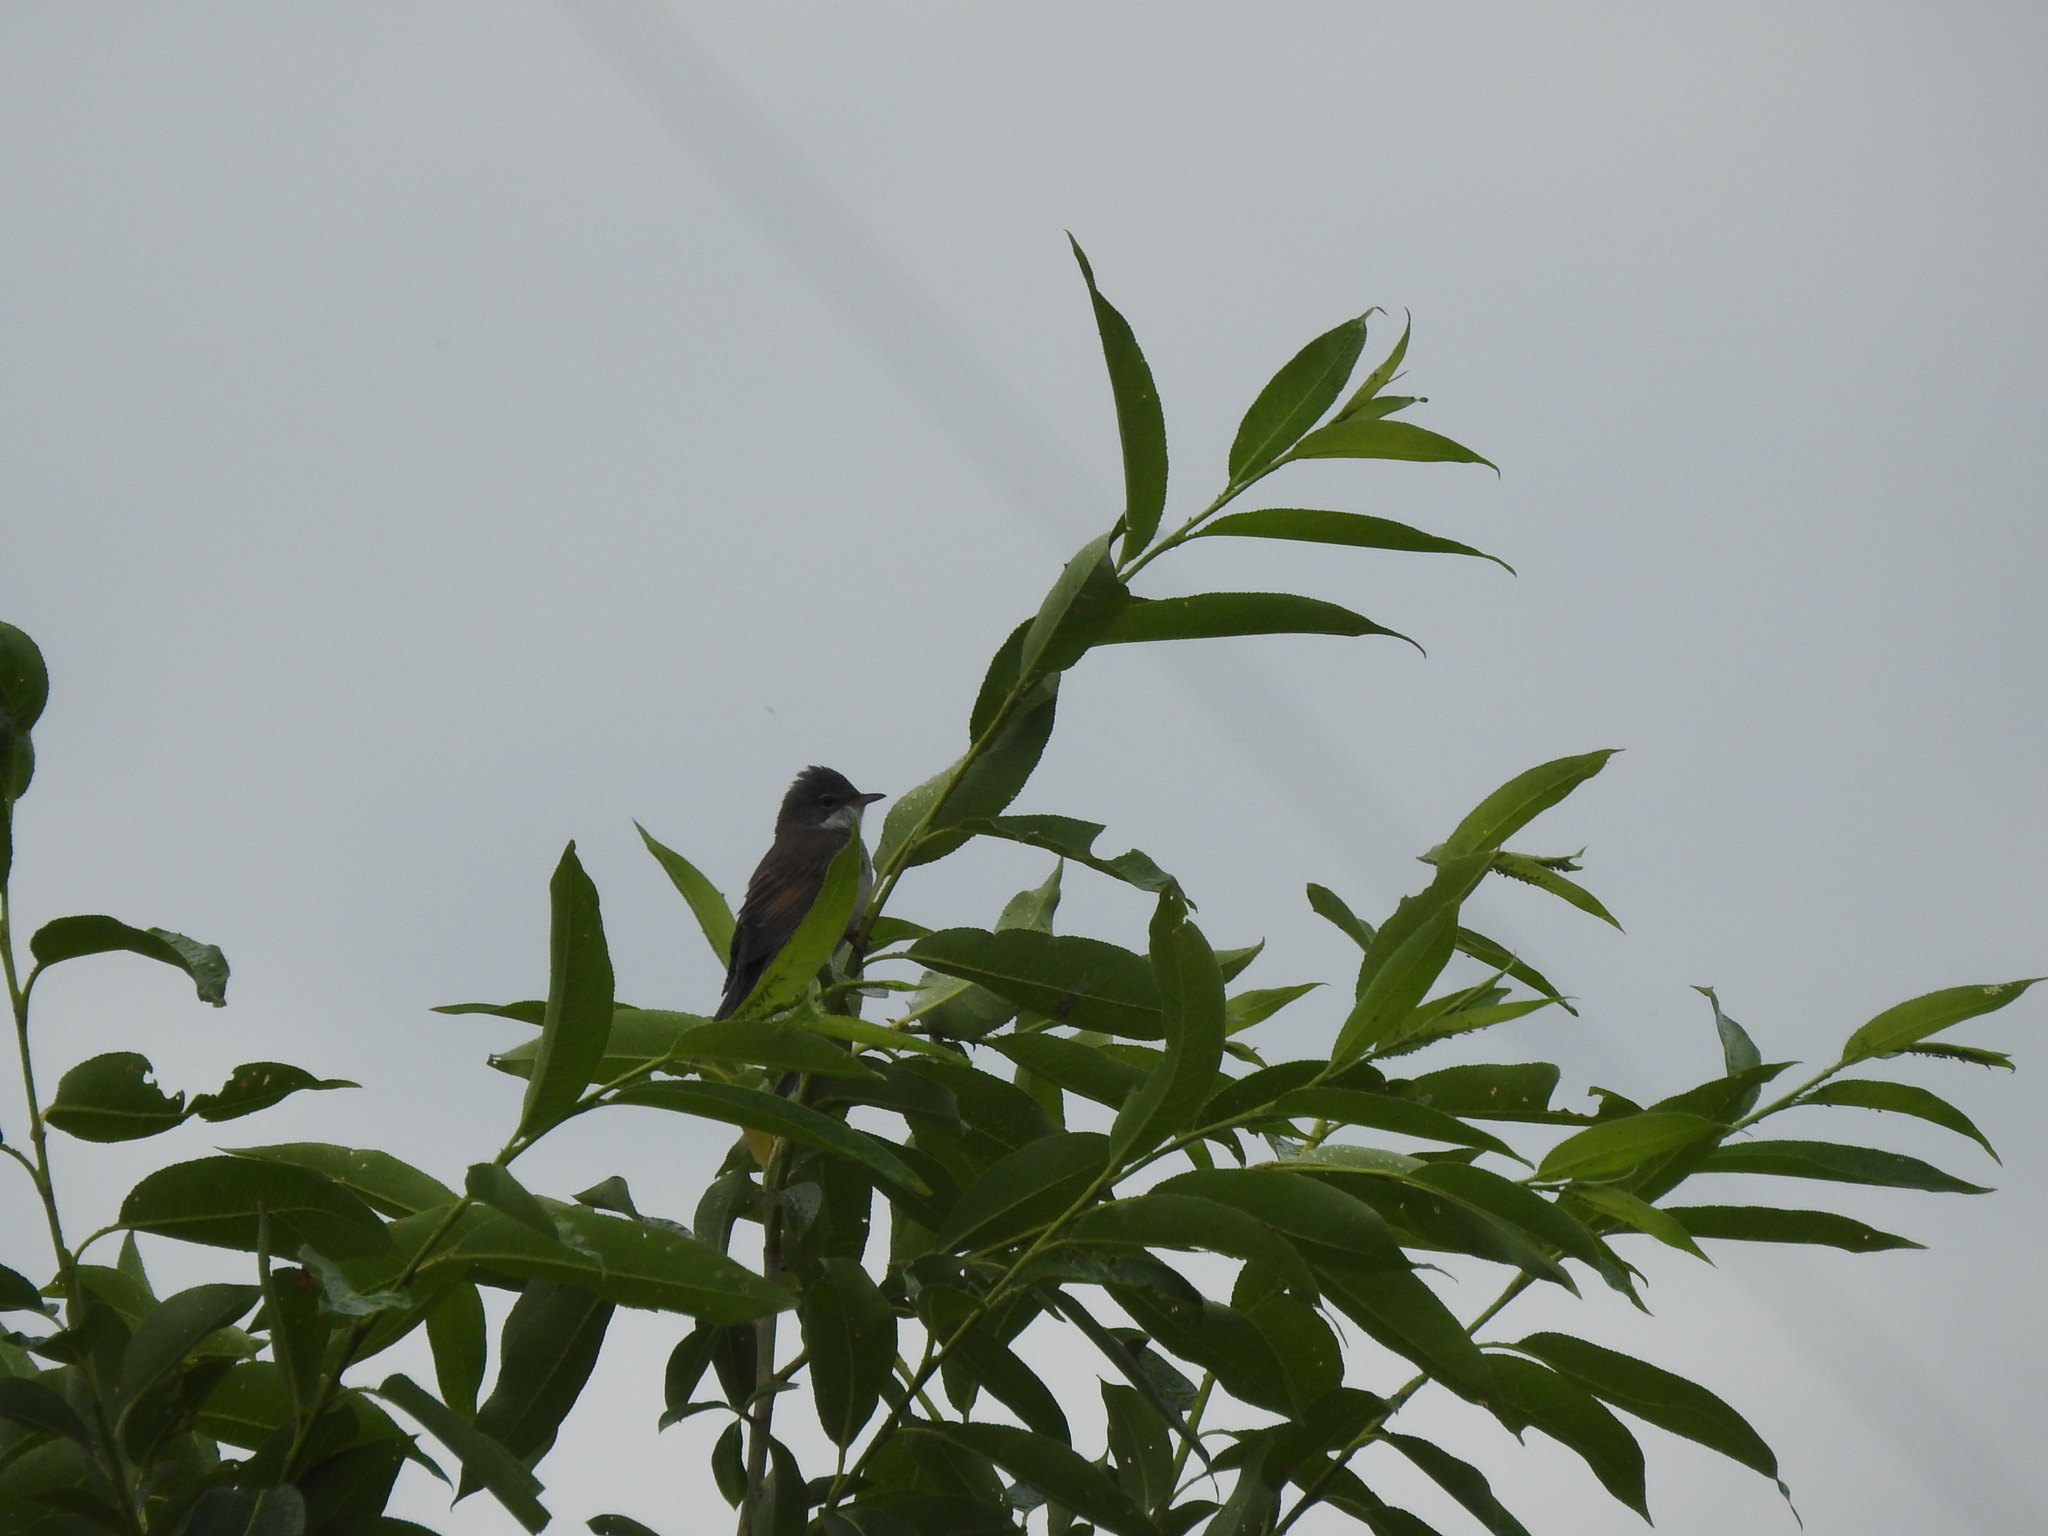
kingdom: Animalia
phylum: Chordata
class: Aves
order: Passeriformes
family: Sylviidae
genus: Sylvia
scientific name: Sylvia communis
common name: Common whitethroat
